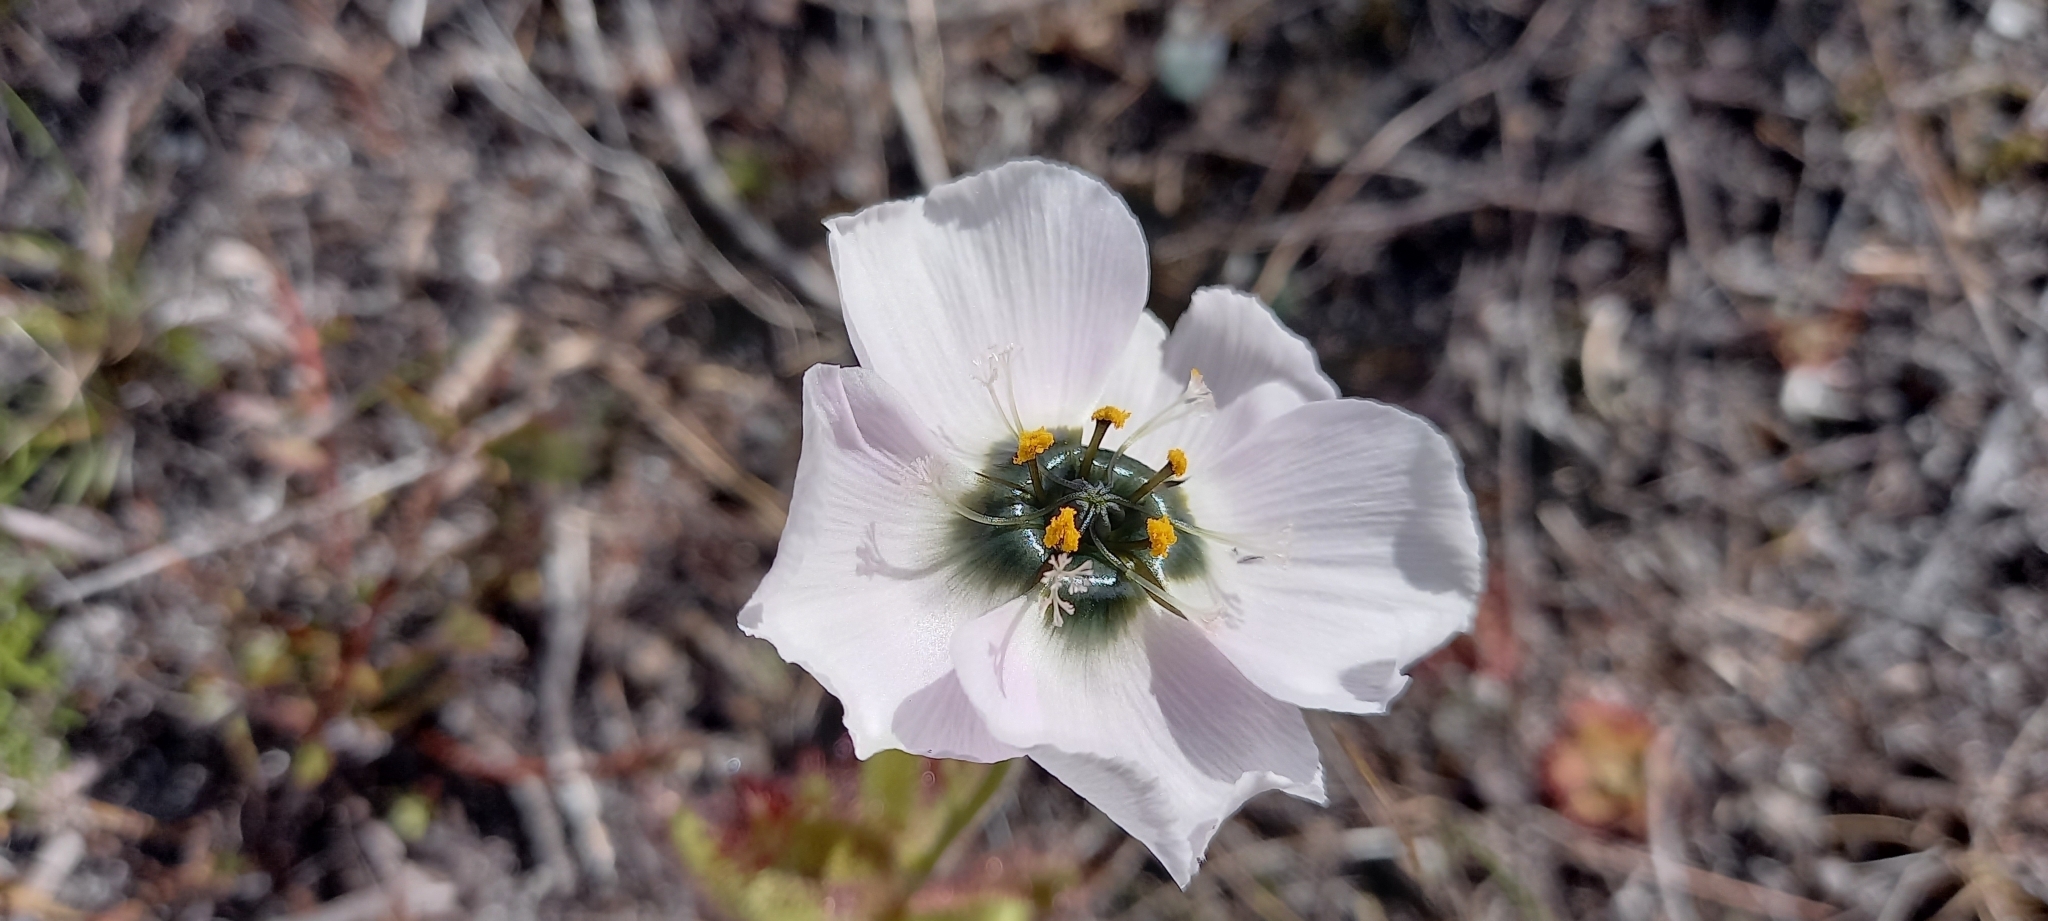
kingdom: Plantae
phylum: Tracheophyta
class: Magnoliopsida
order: Caryophyllales
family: Droseraceae
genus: Drosera
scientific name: Drosera cistiflora
